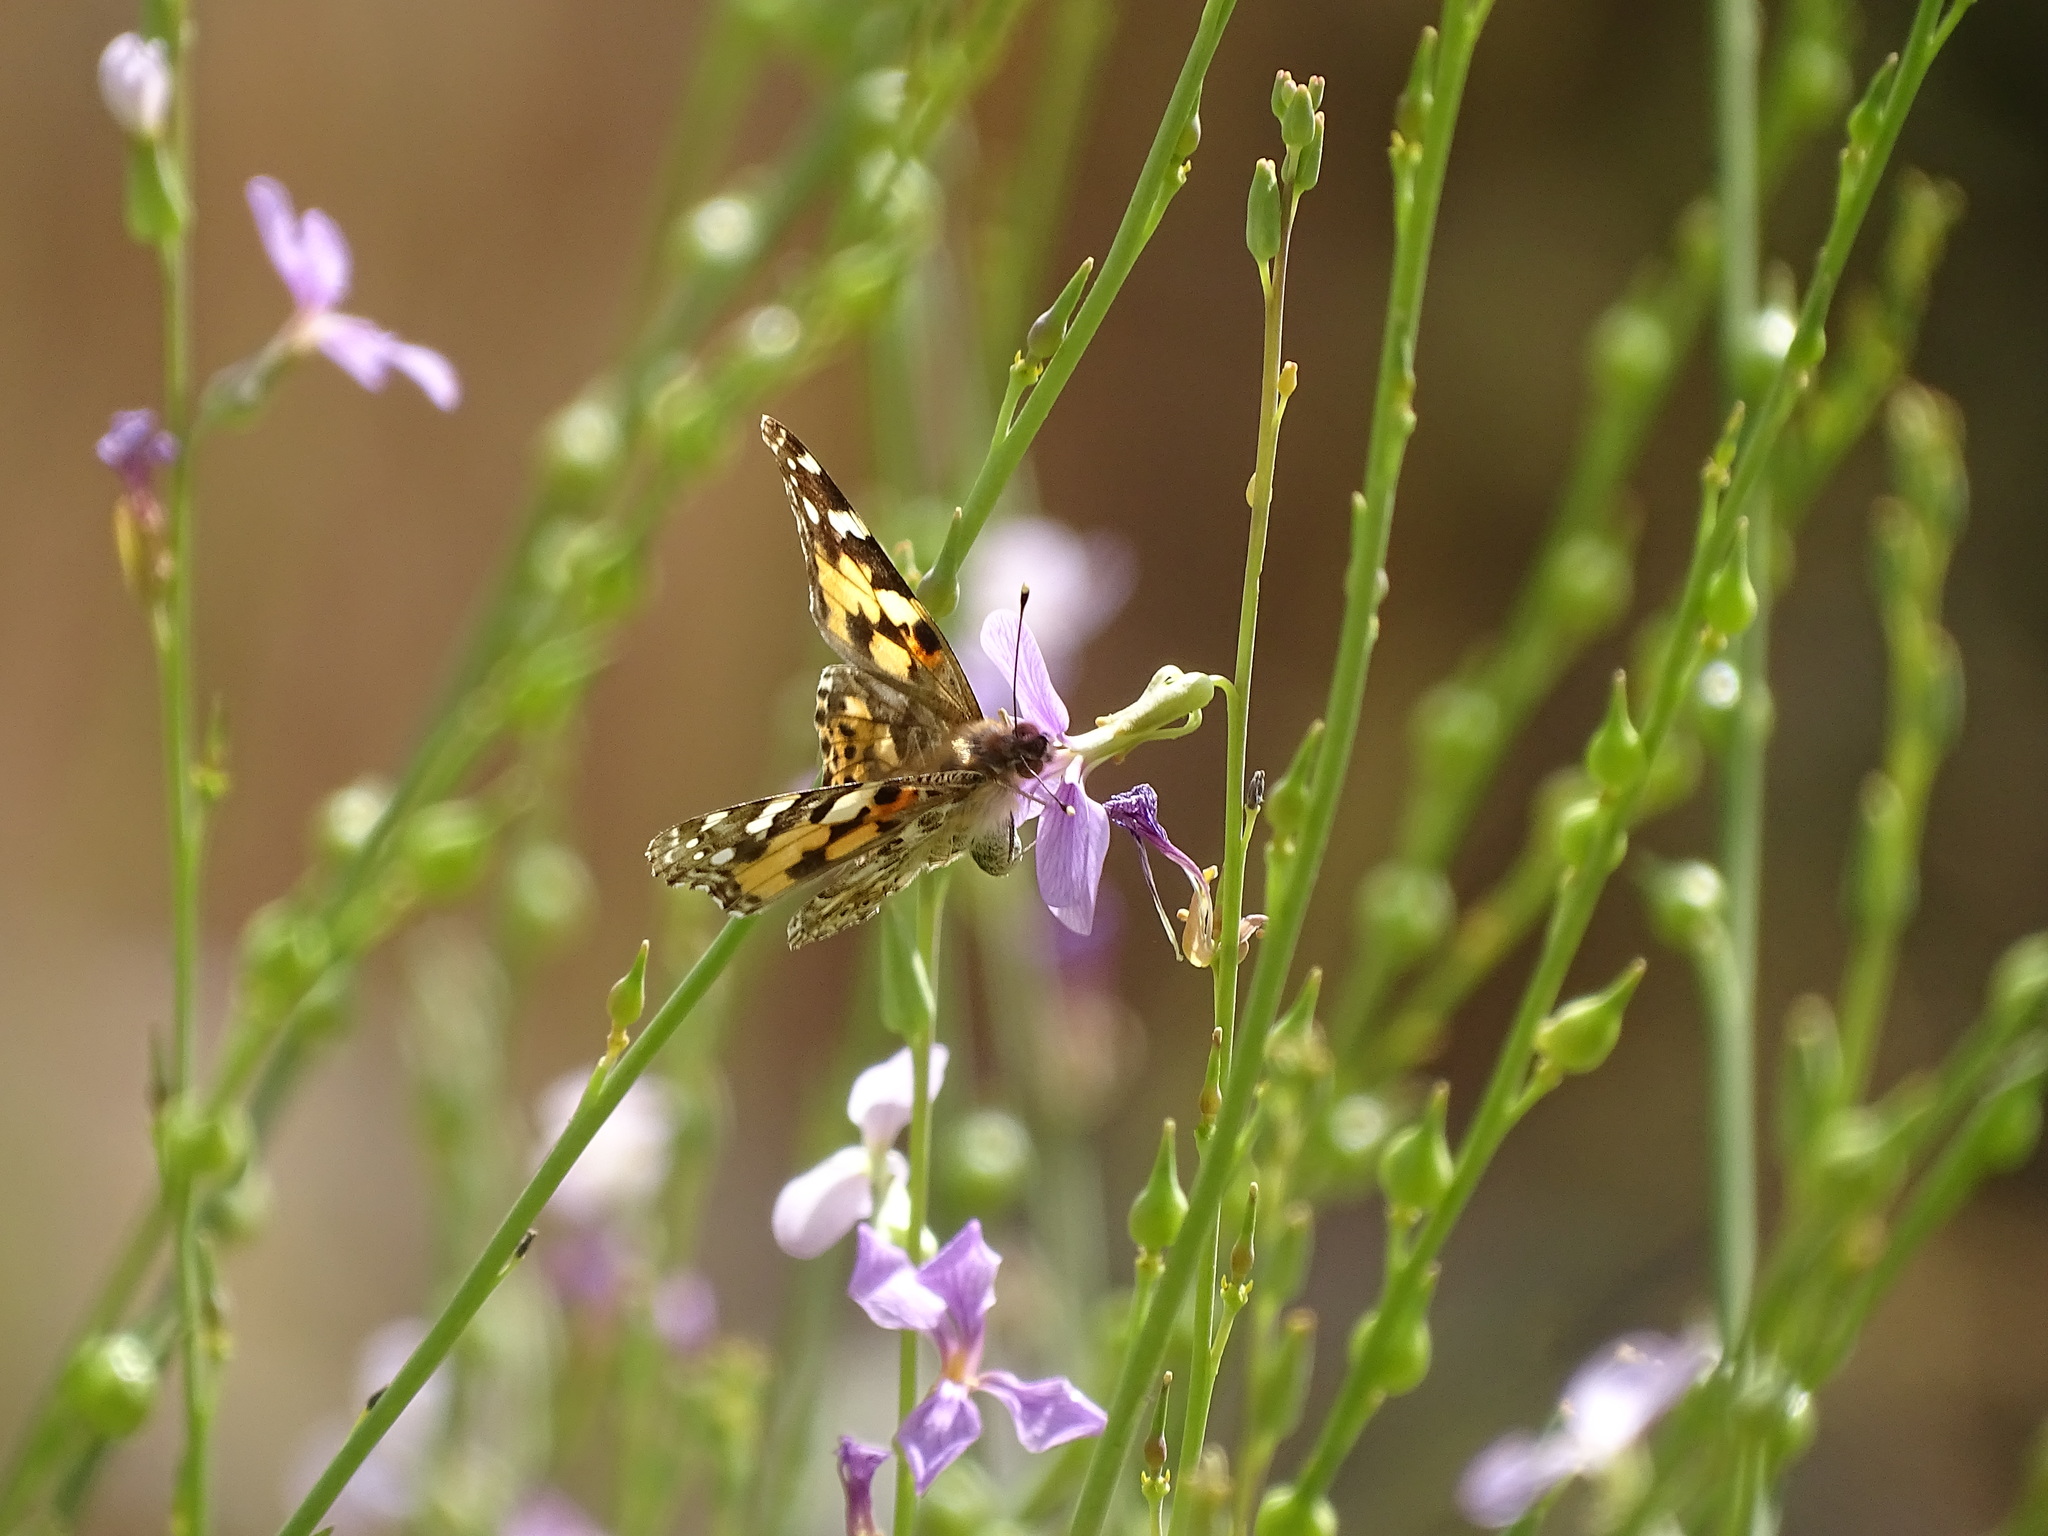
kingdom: Animalia
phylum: Arthropoda
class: Insecta
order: Lepidoptera
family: Nymphalidae
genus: Vanessa
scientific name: Vanessa cardui
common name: Painted lady
